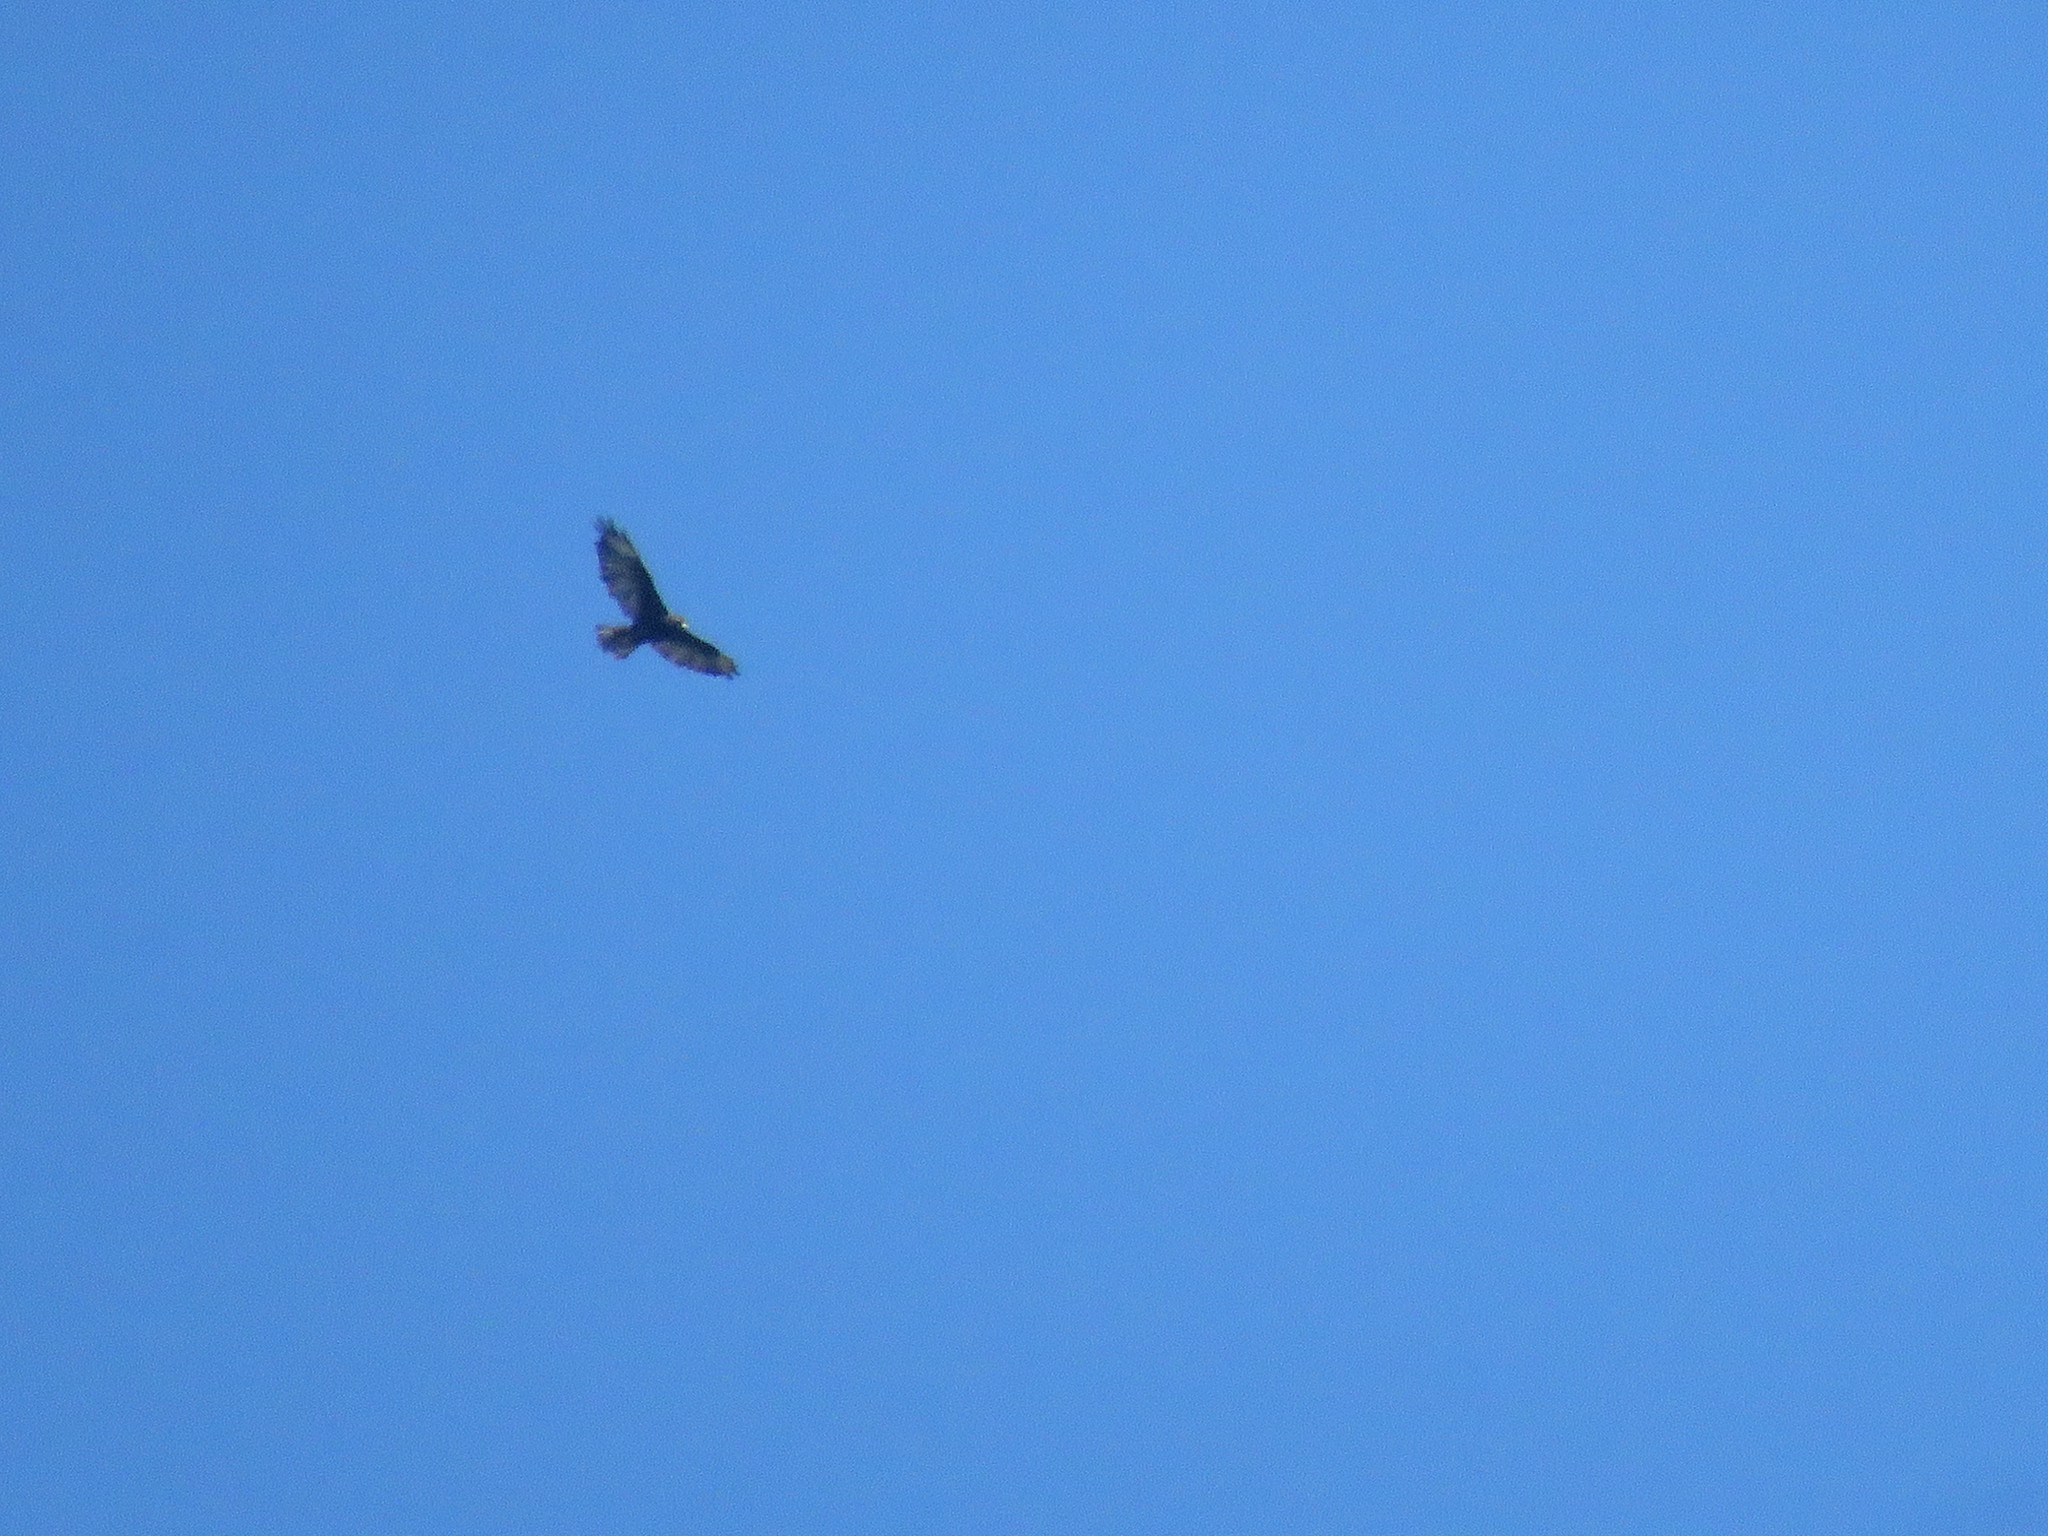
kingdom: Animalia
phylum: Chordata
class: Aves
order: Accipitriformes
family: Accipitridae
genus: Buteo
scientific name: Buteo polyosoma
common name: Variable hawk
